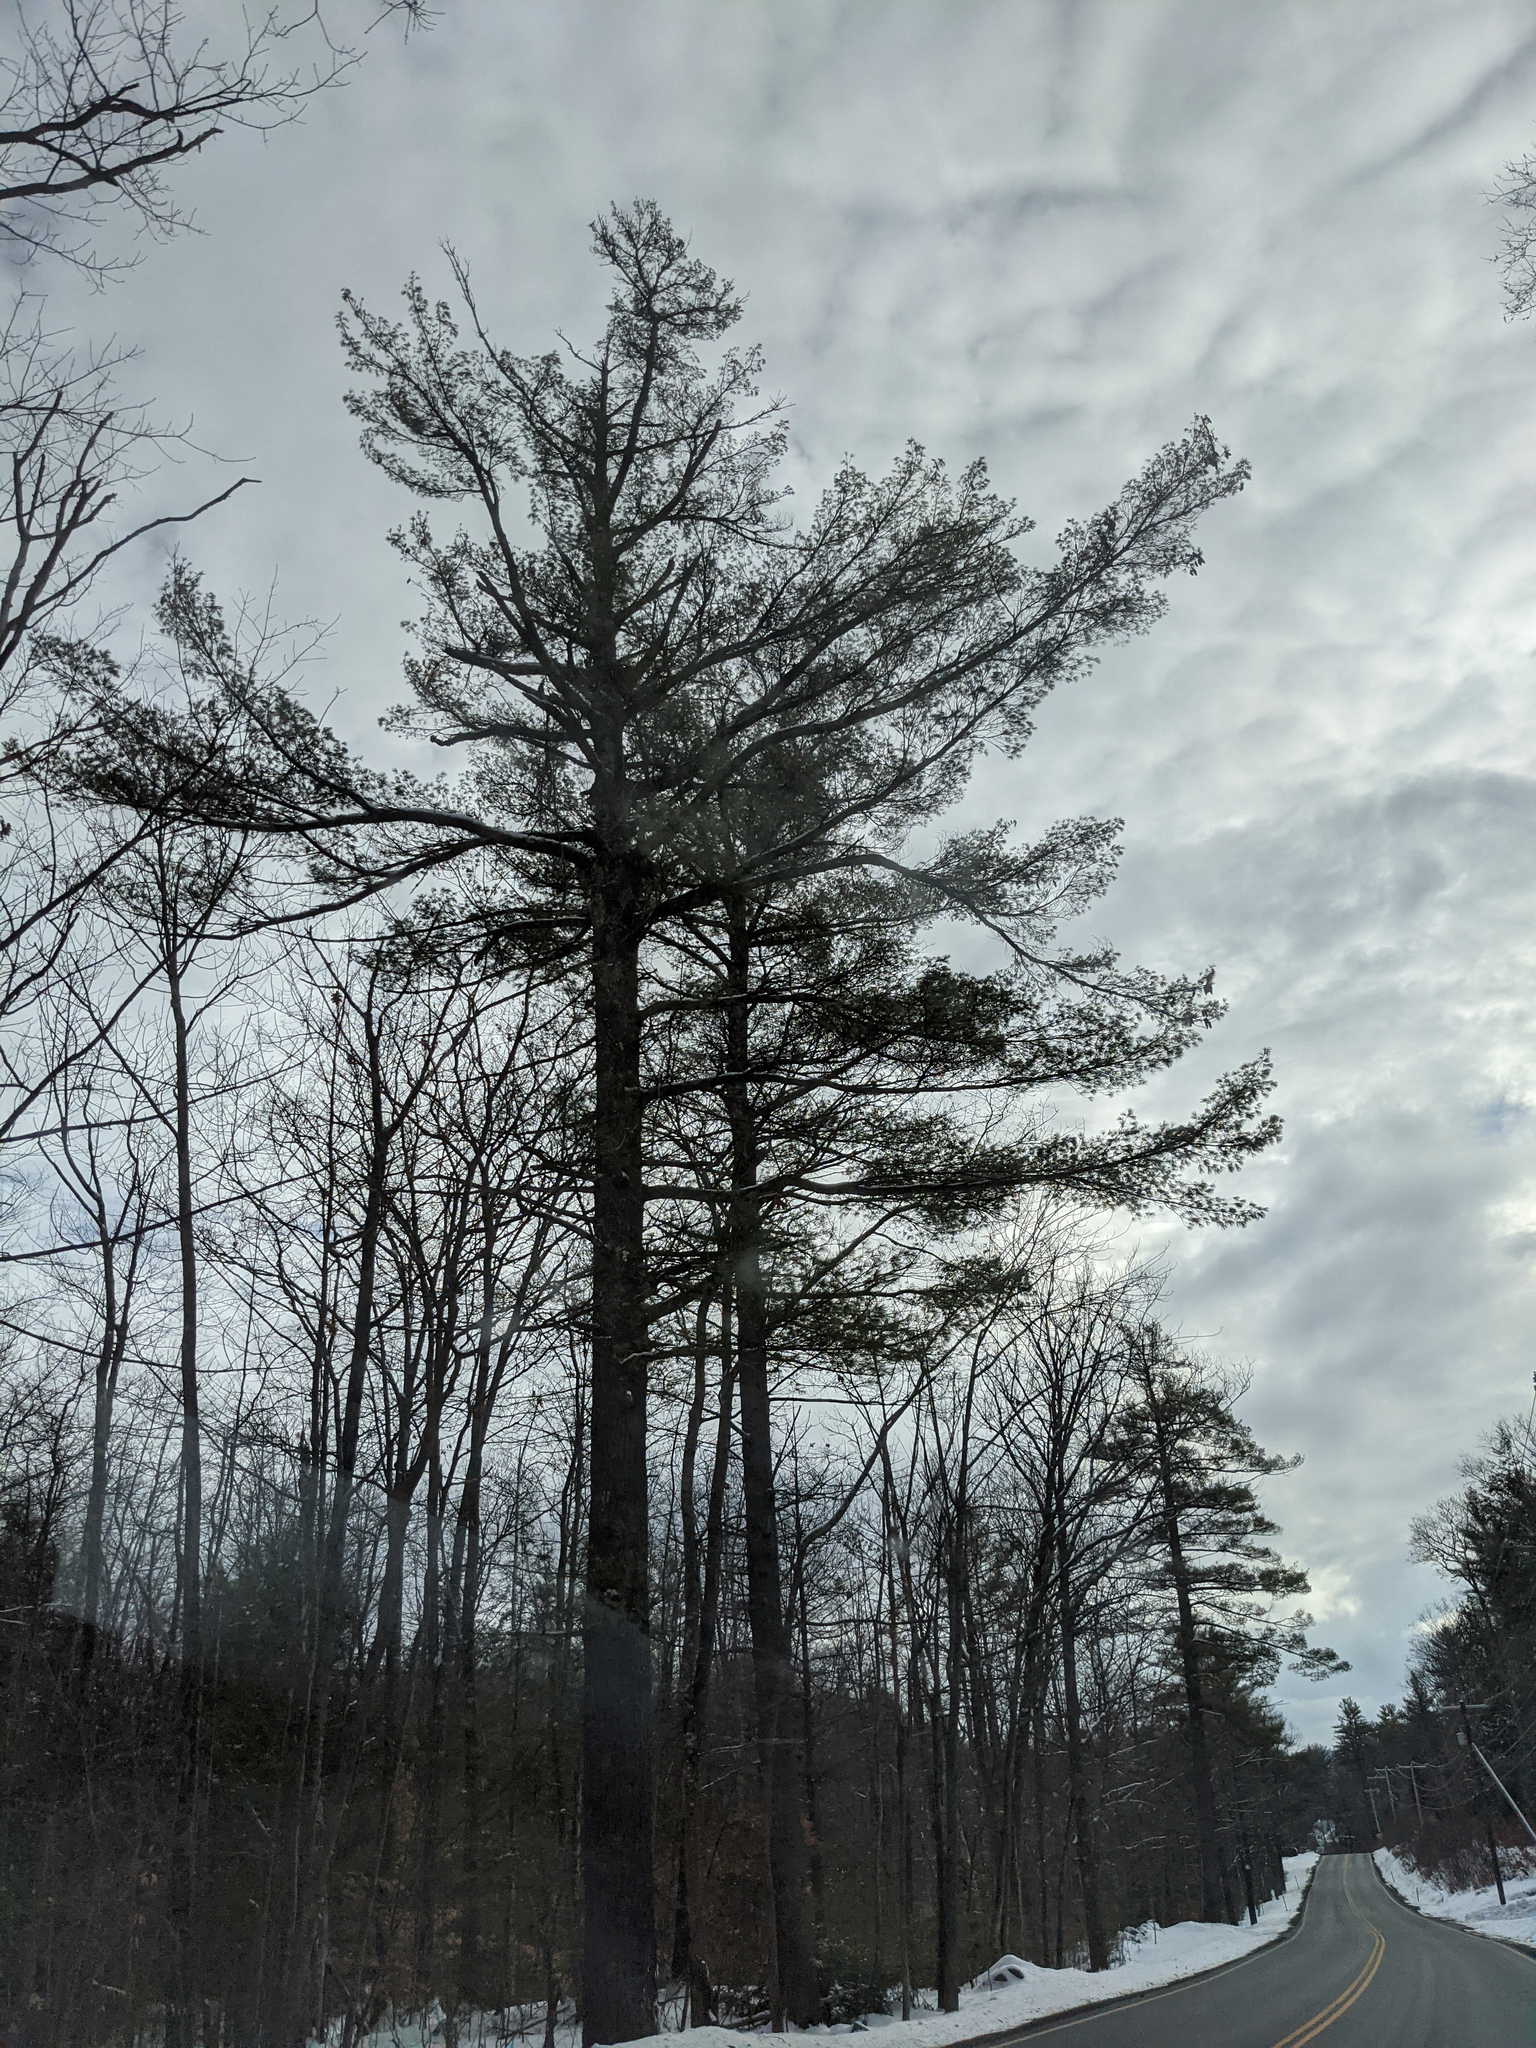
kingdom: Plantae
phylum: Tracheophyta
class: Pinopsida
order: Pinales
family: Pinaceae
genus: Pinus
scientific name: Pinus strobus
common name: Weymouth pine
